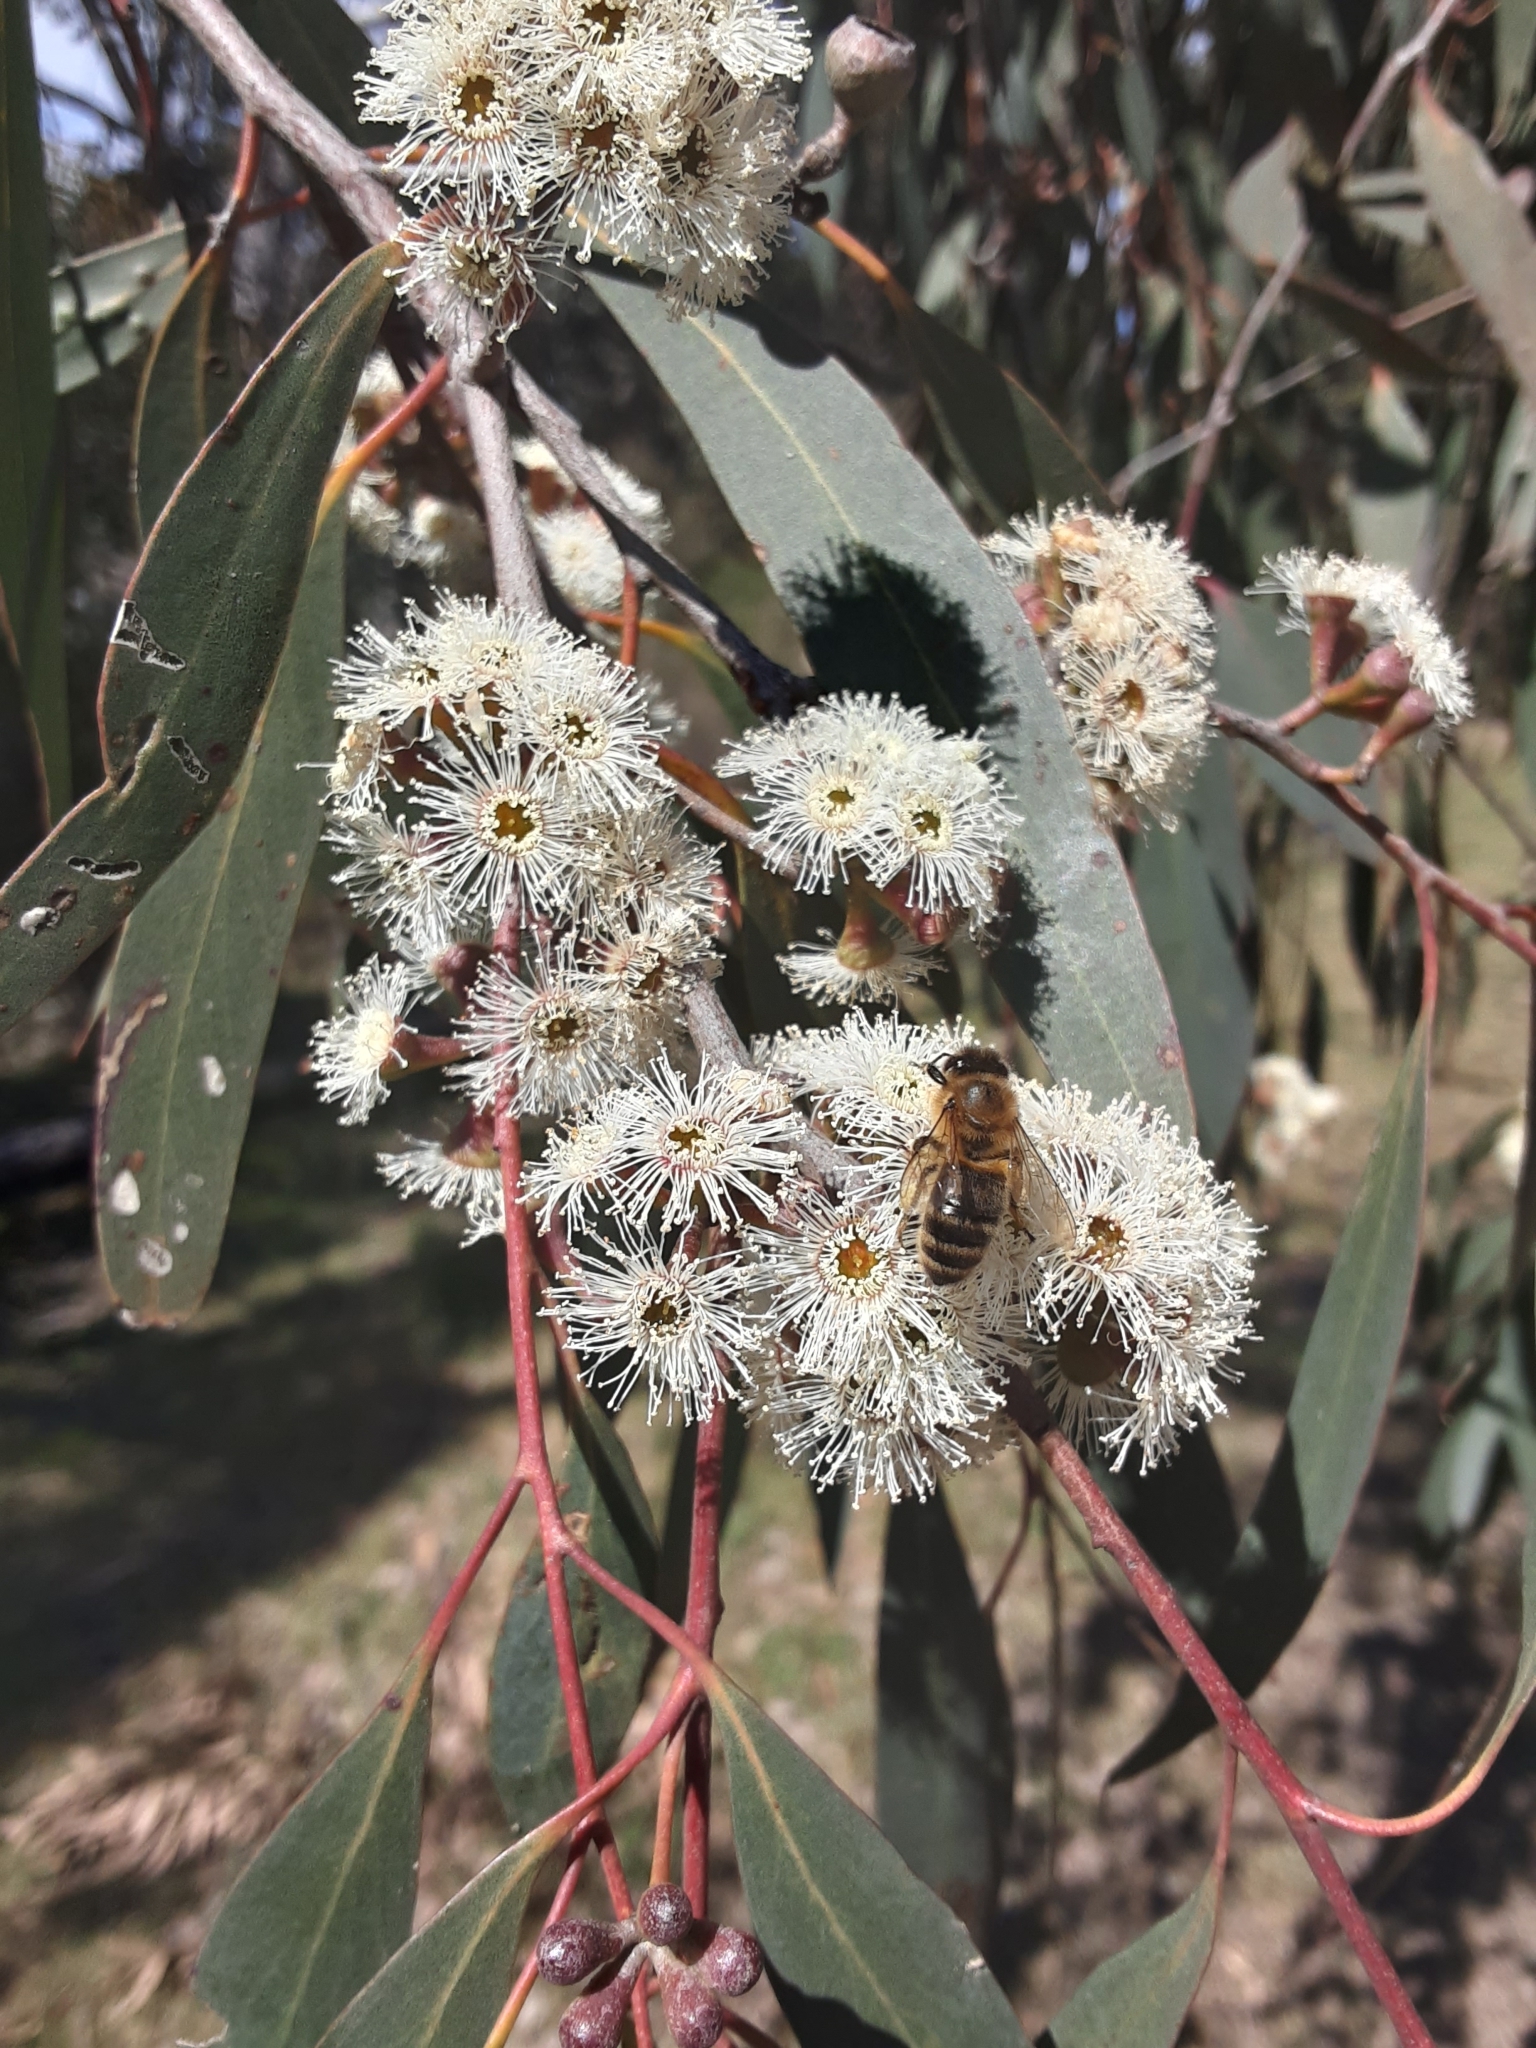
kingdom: Animalia
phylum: Arthropoda
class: Insecta
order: Hymenoptera
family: Apidae
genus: Apis
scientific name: Apis mellifera
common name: Honey bee
